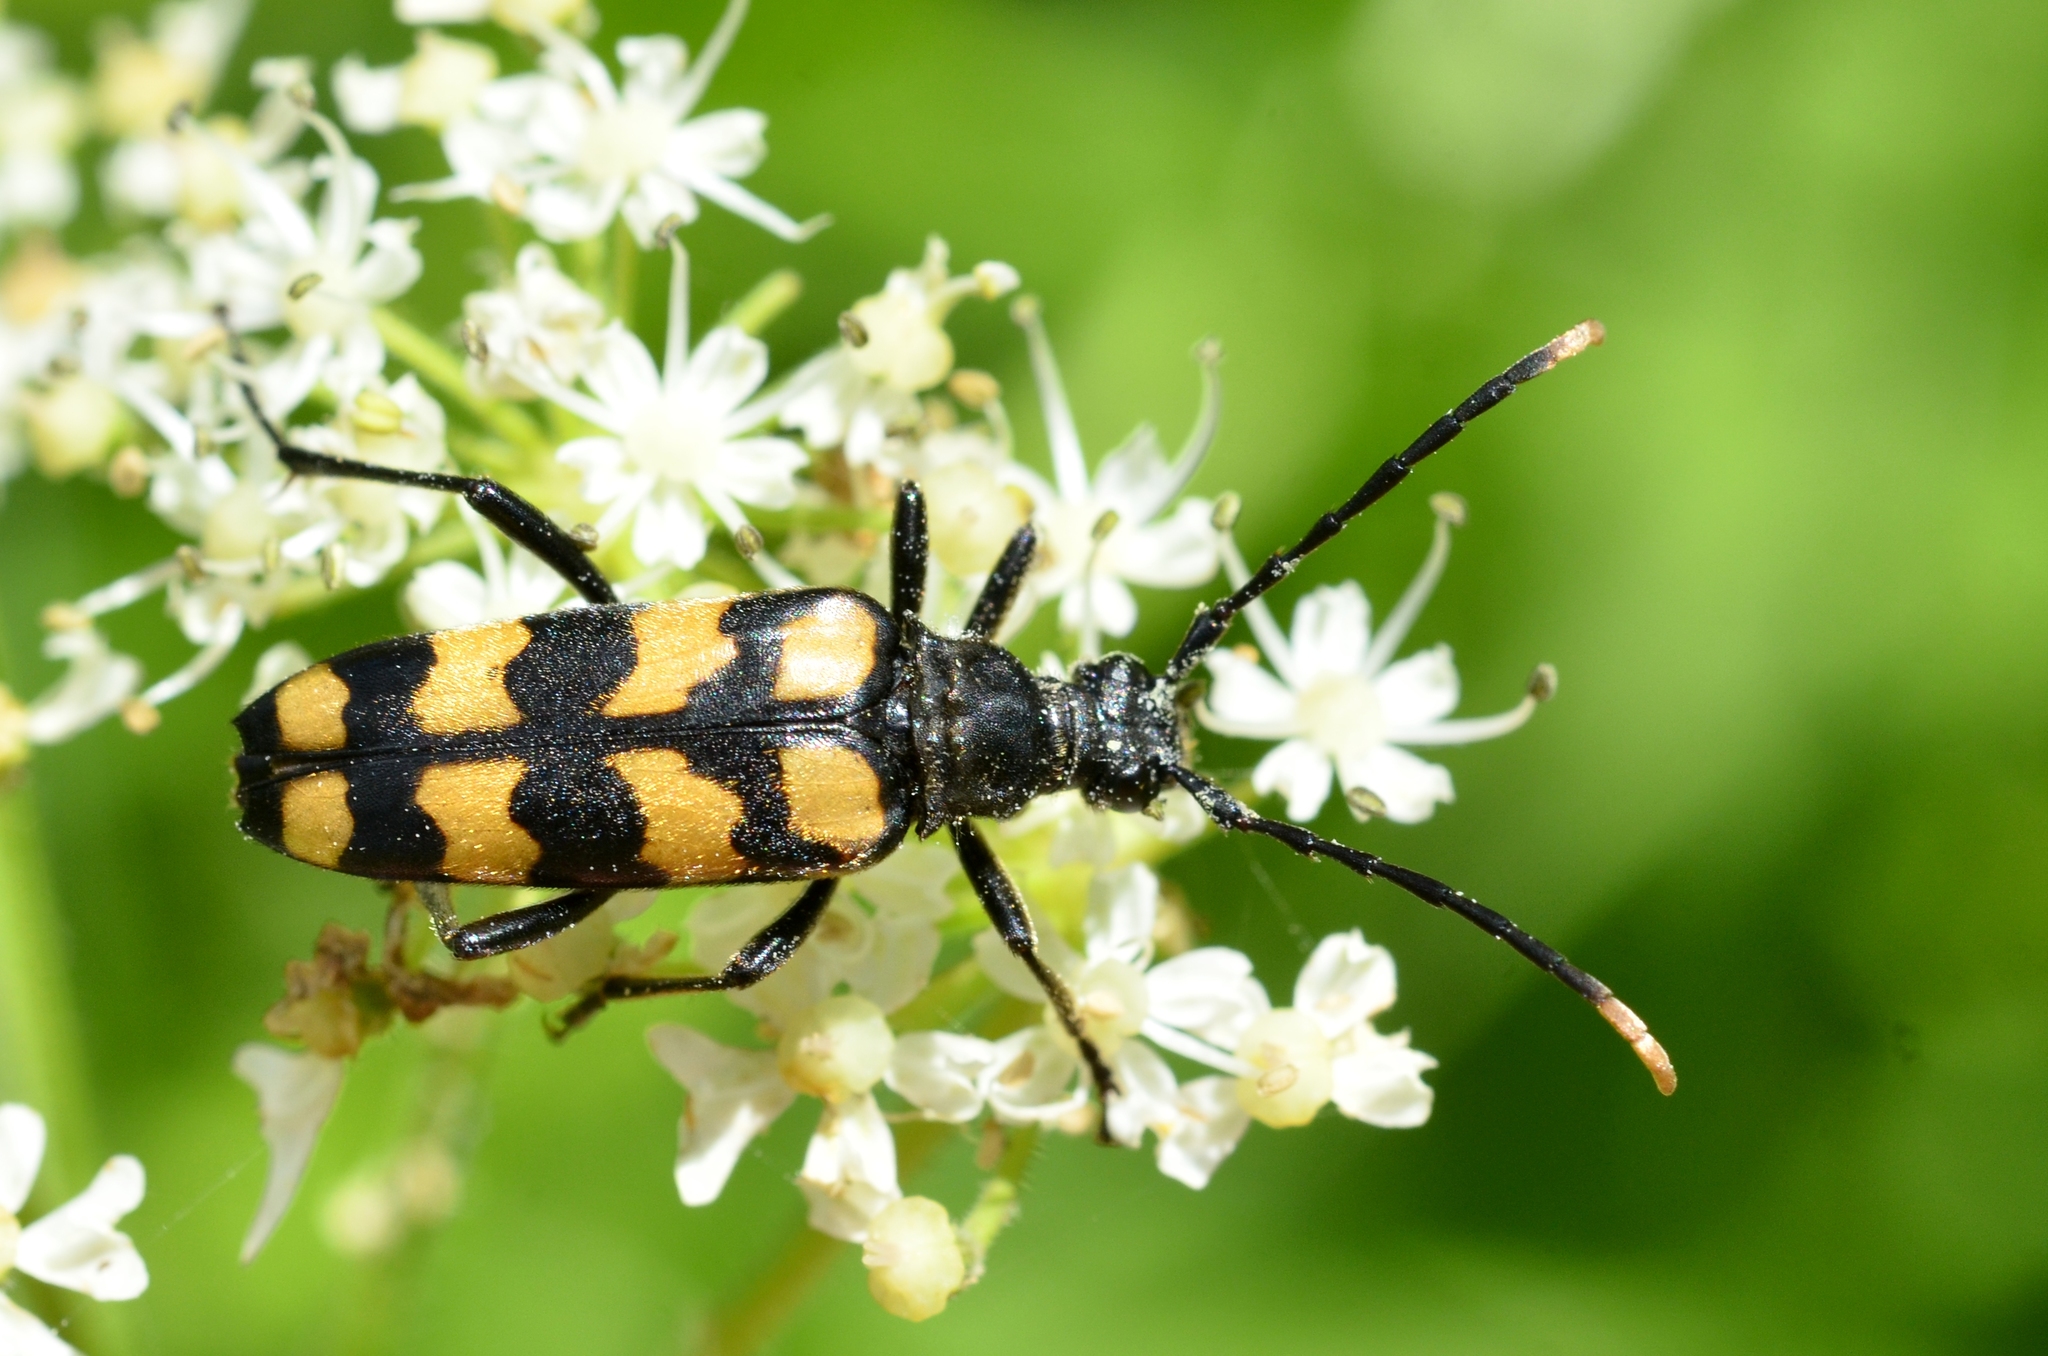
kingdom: Animalia
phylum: Arthropoda
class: Insecta
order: Coleoptera
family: Cerambycidae
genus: Leptura
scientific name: Leptura quadrifasciata
